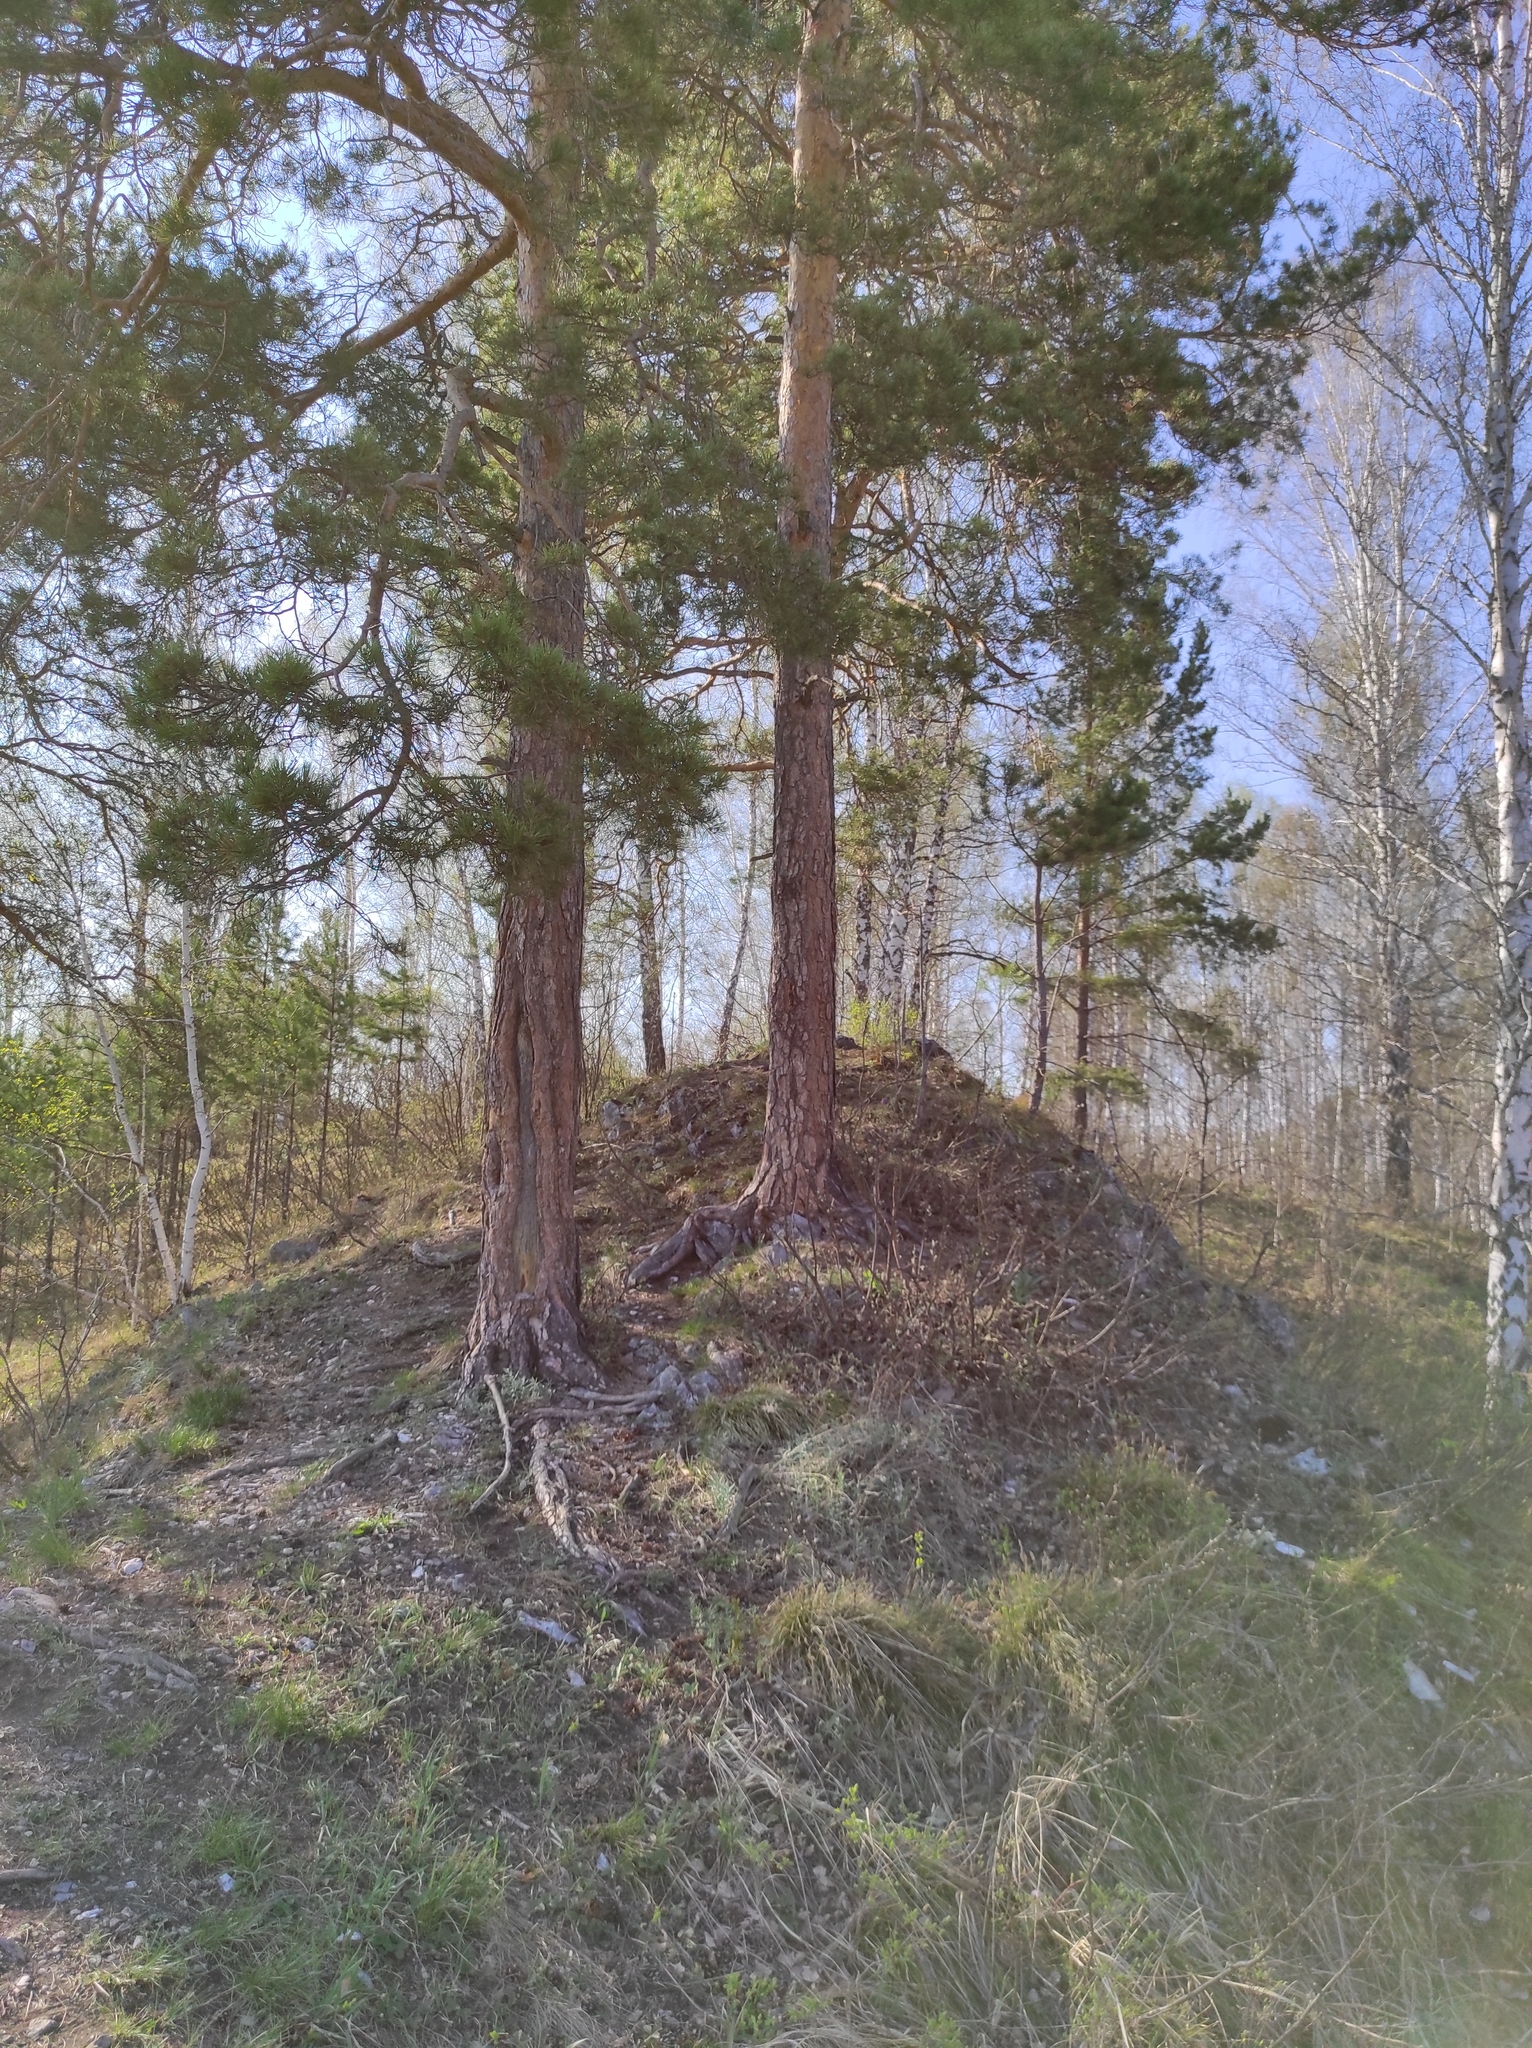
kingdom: Plantae
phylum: Tracheophyta
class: Pinopsida
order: Pinales
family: Pinaceae
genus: Pinus
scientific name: Pinus sylvestris
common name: Scots pine
